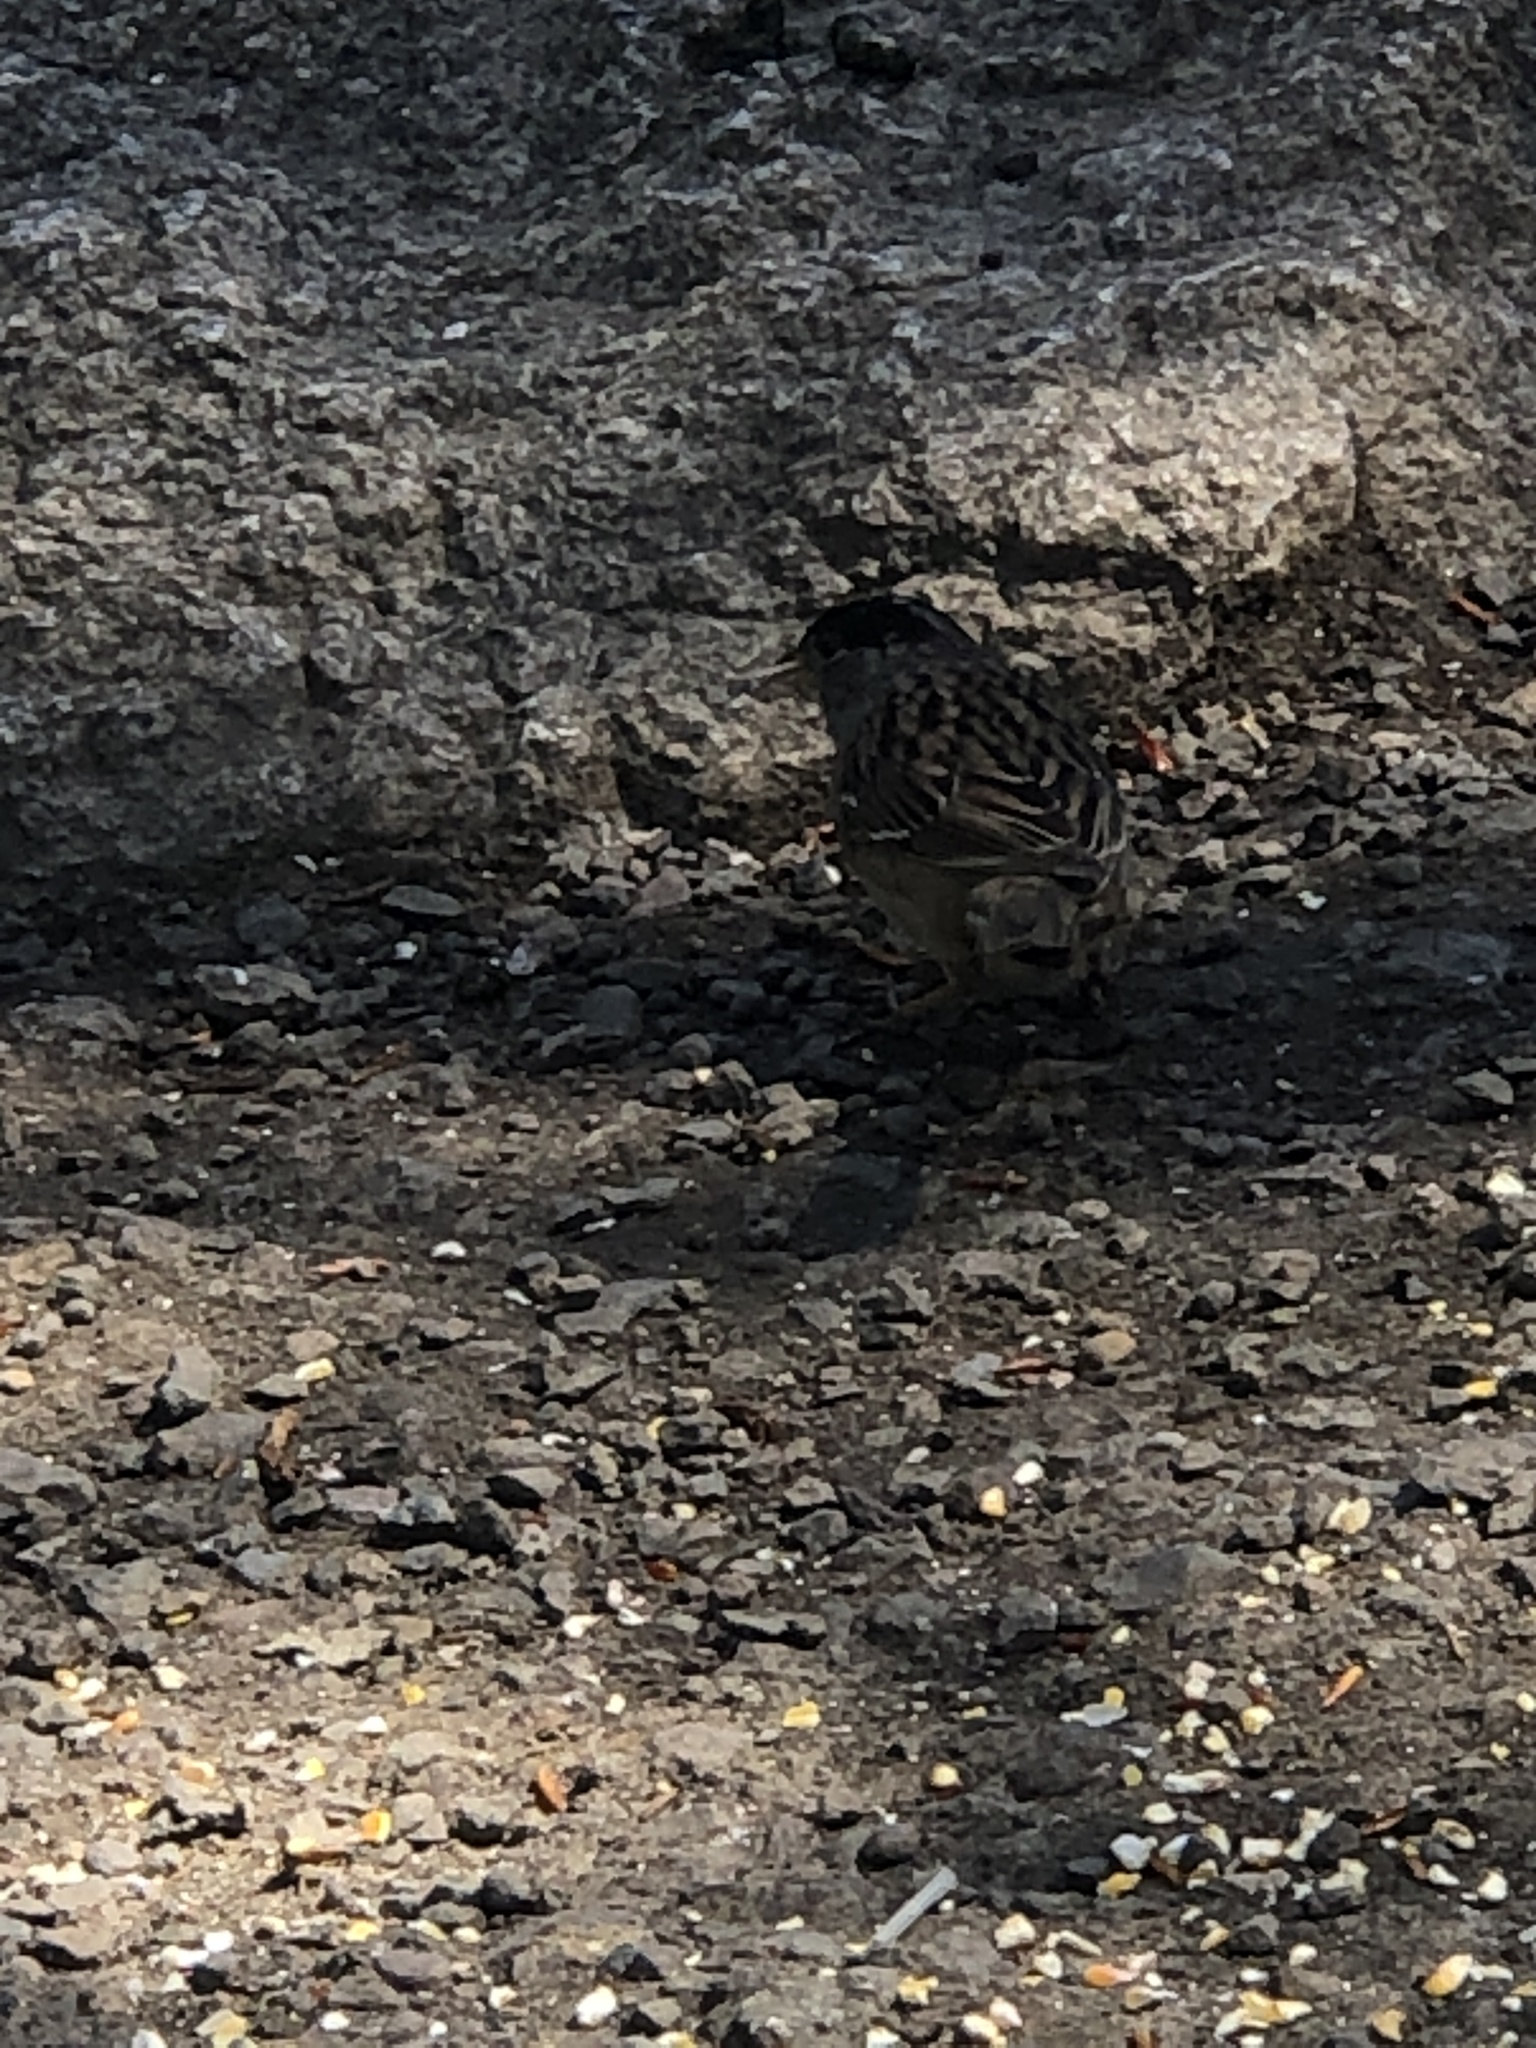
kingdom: Animalia
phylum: Chordata
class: Aves
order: Passeriformes
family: Passerellidae
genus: Zonotrichia
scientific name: Zonotrichia atricapilla
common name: Golden-crowned sparrow
